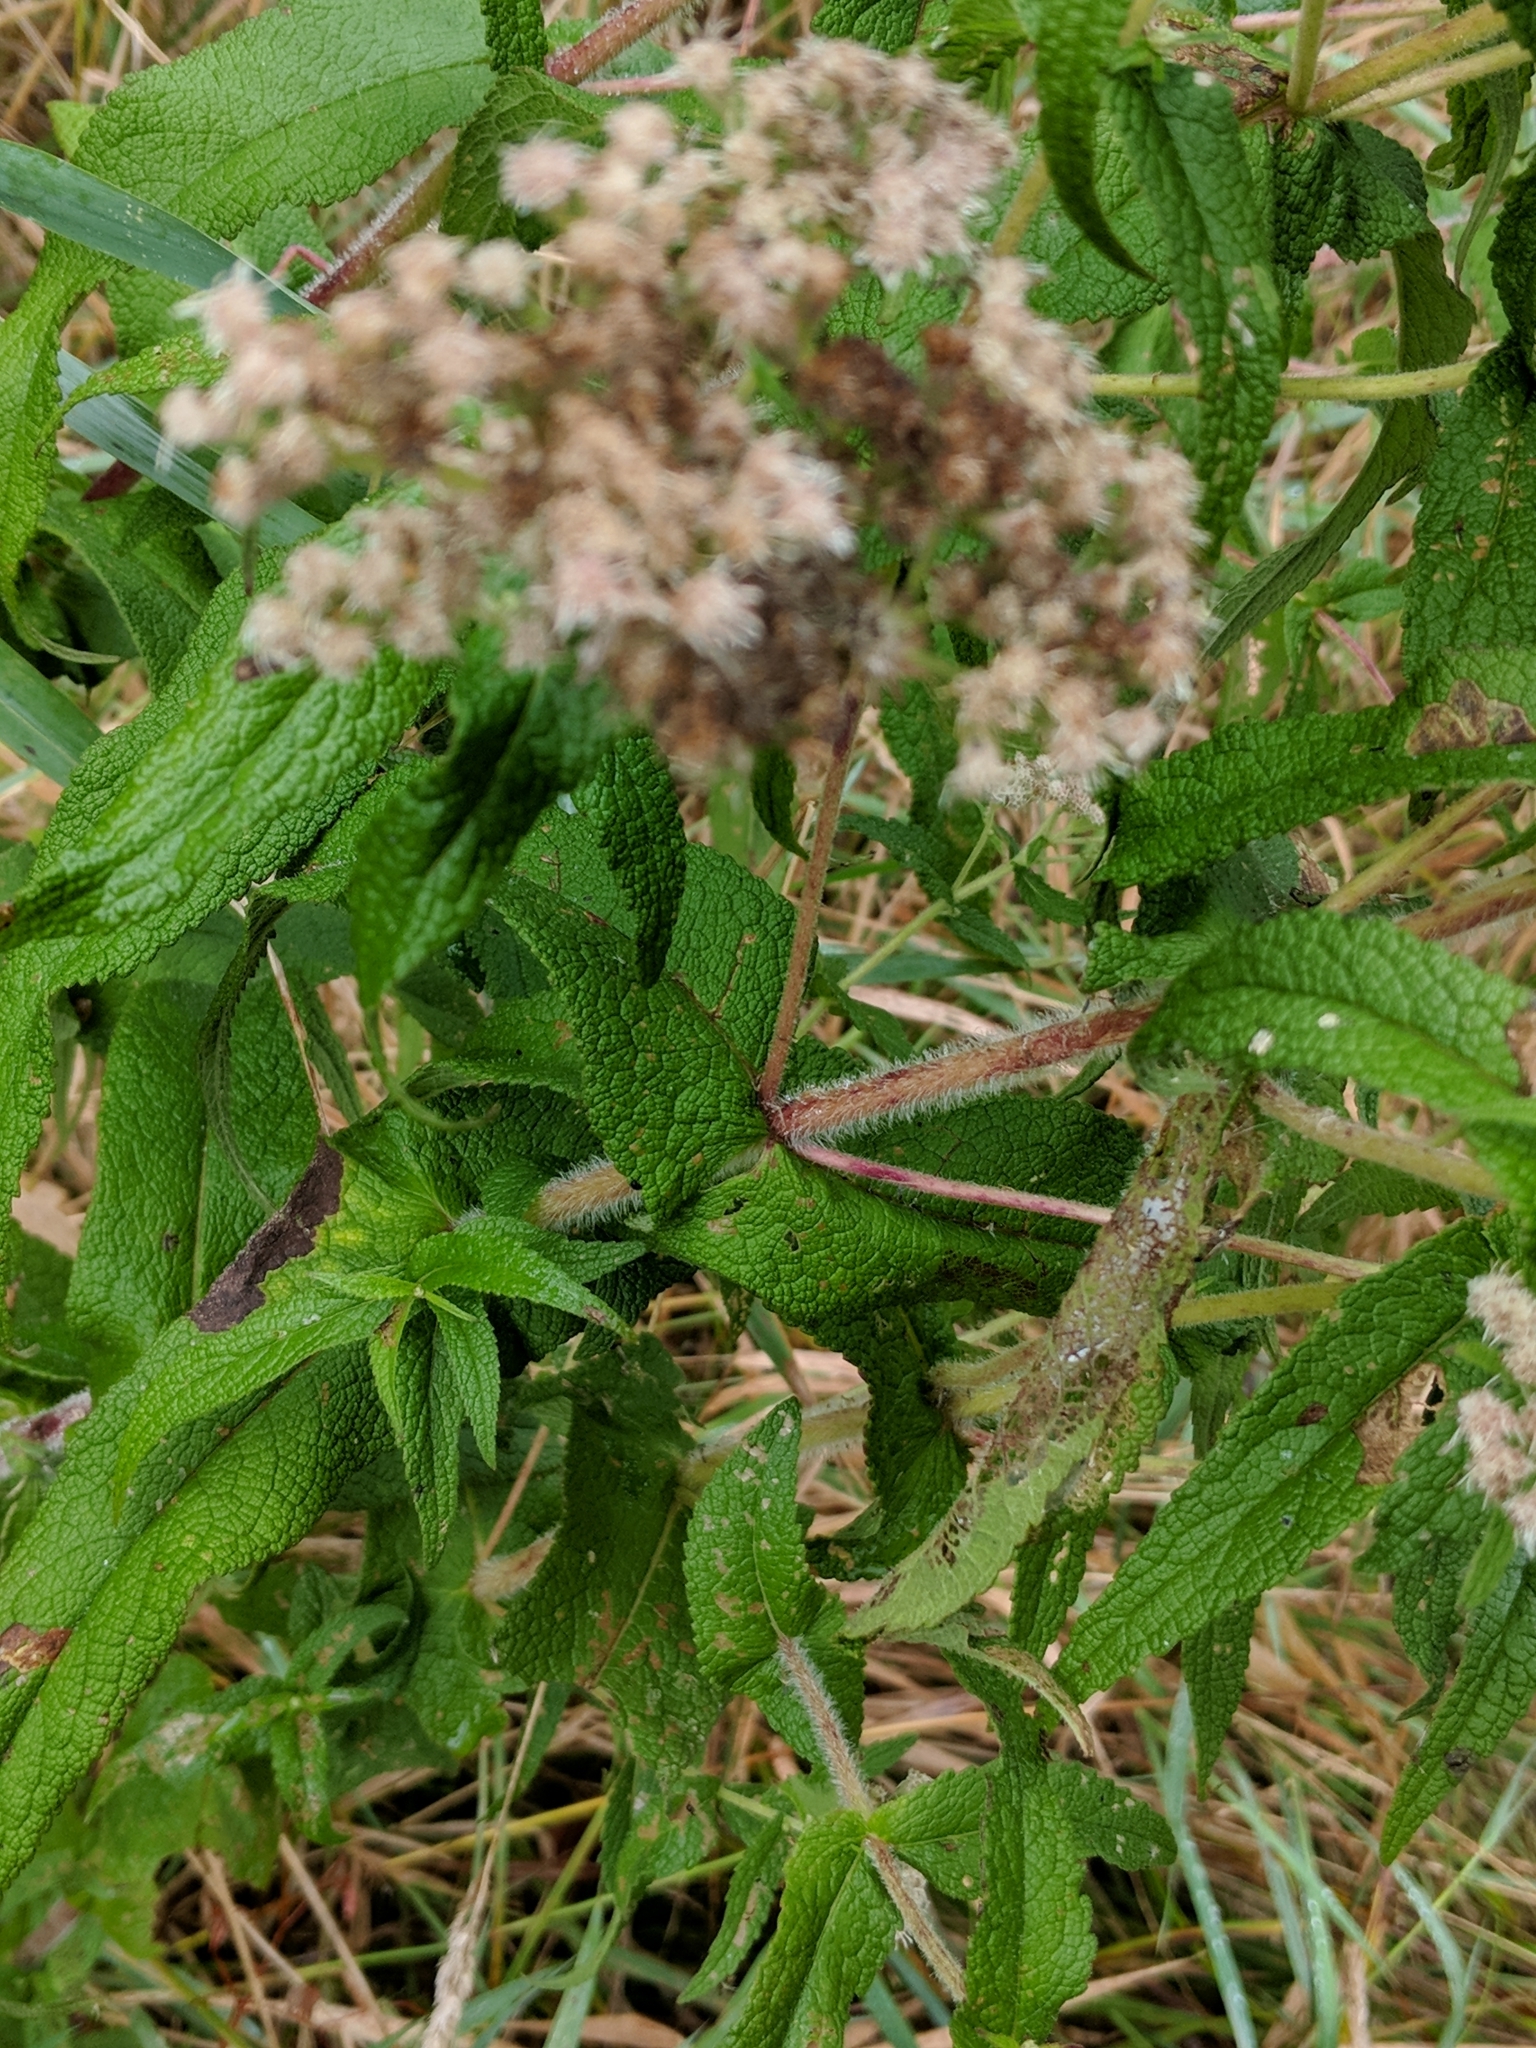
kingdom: Plantae
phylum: Tracheophyta
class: Magnoliopsida
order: Asterales
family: Asteraceae
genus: Eupatorium
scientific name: Eupatorium perfoliatum
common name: Boneset
